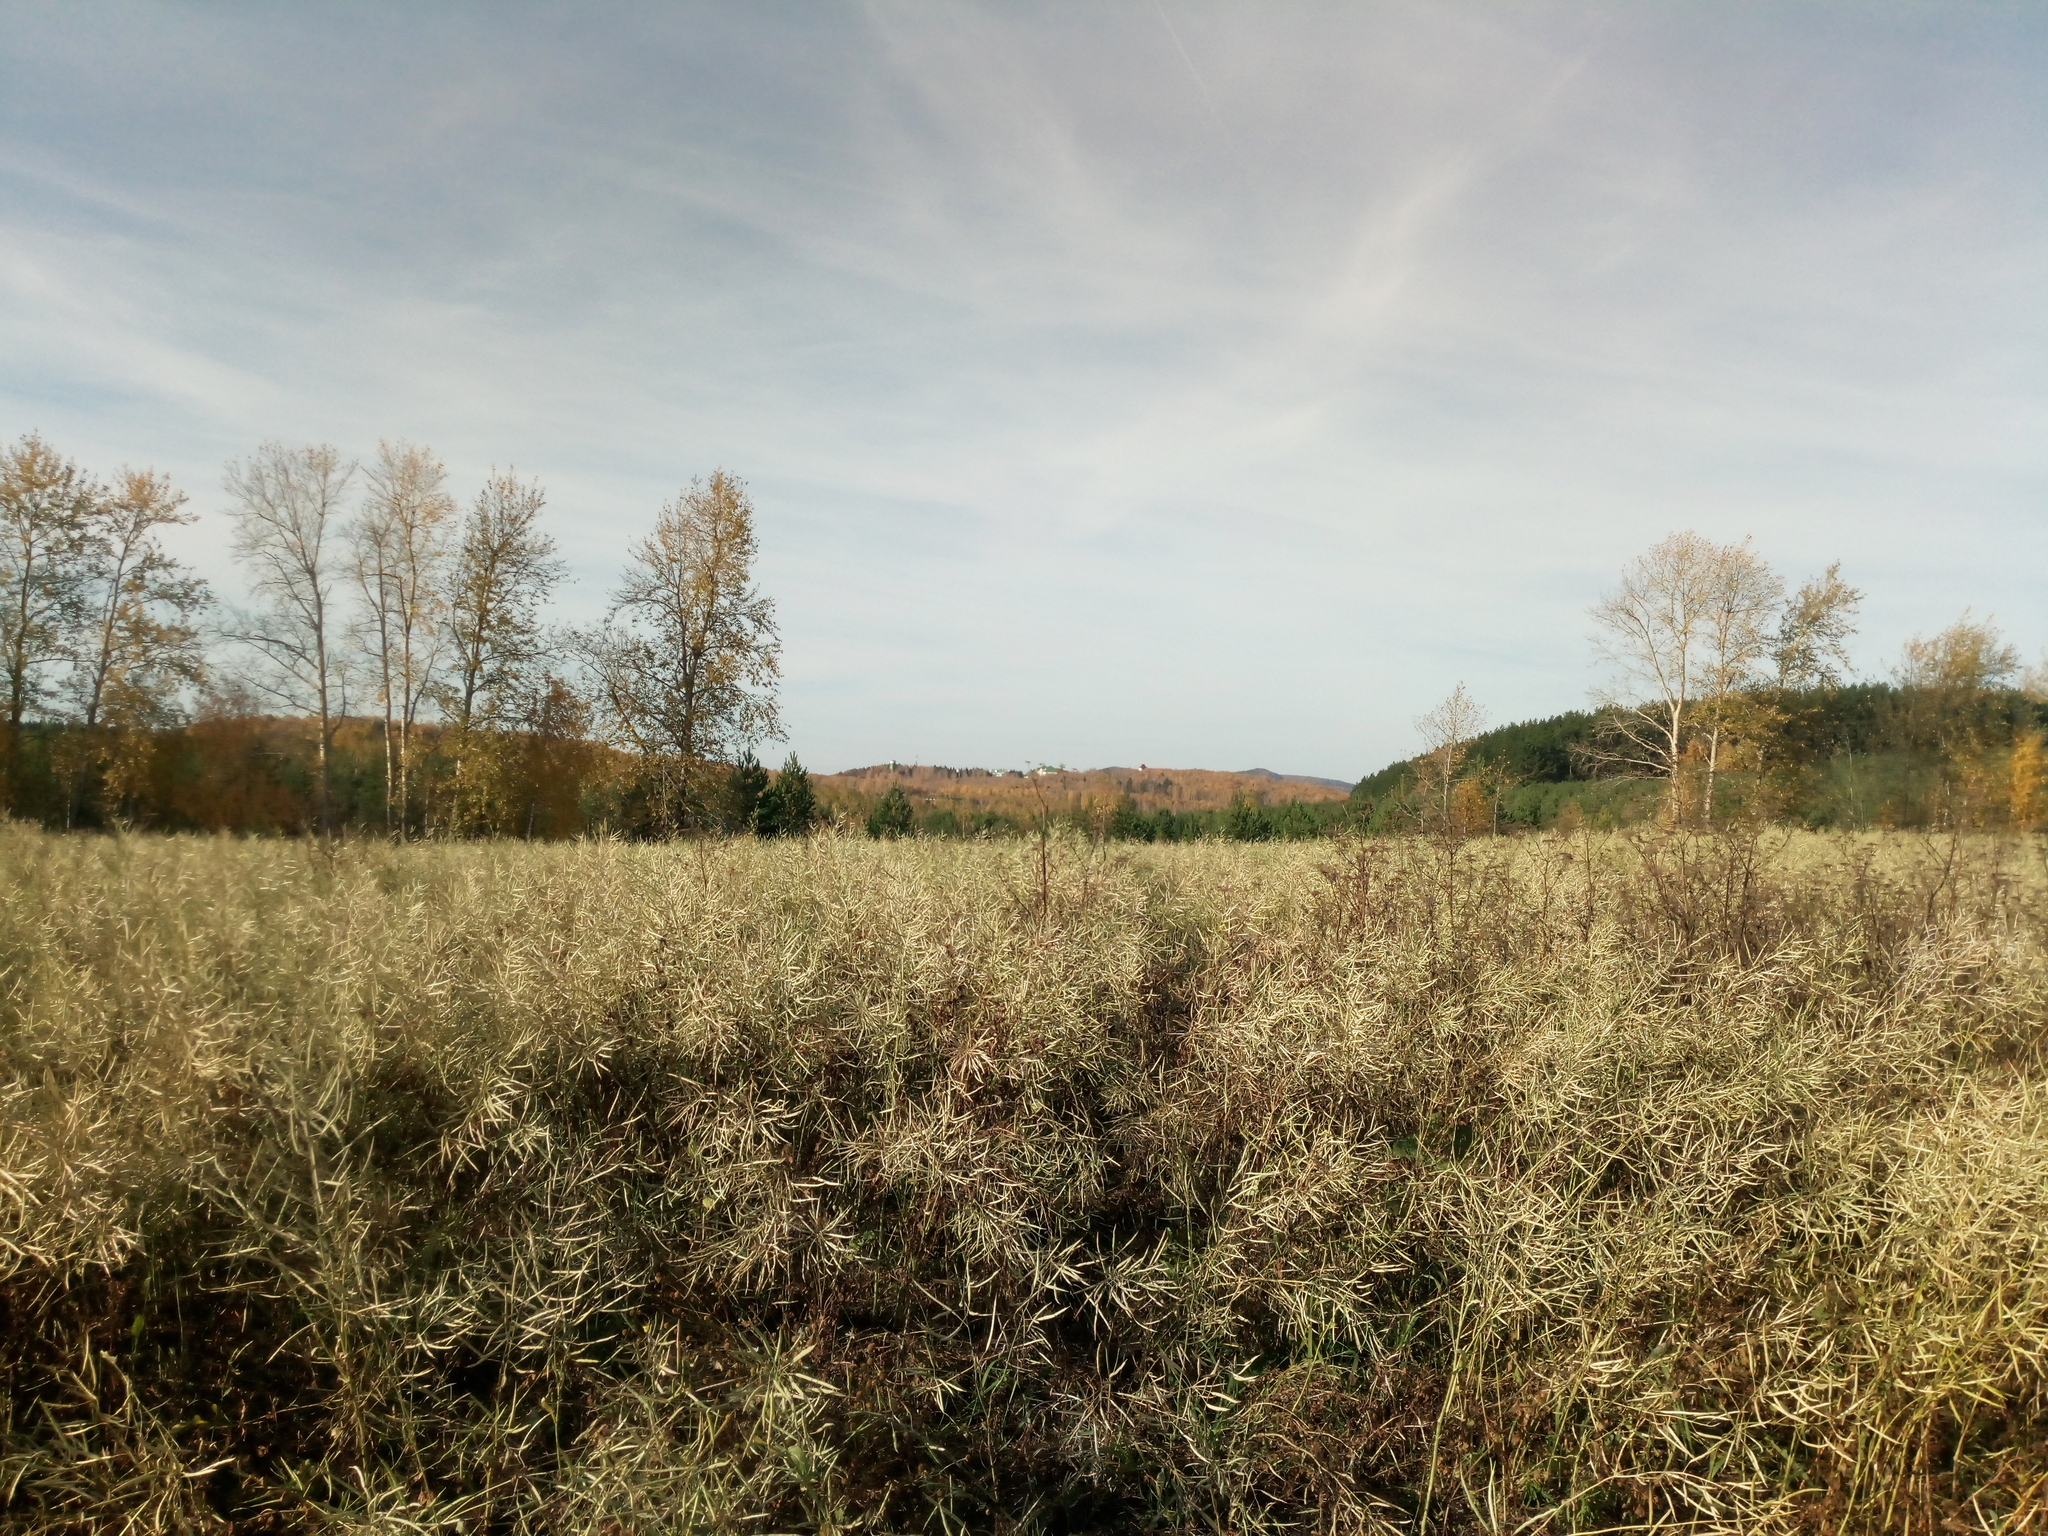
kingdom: Plantae
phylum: Tracheophyta
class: Magnoliopsida
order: Brassicales
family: Brassicaceae
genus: Brassica
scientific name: Brassica napus
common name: Rape
